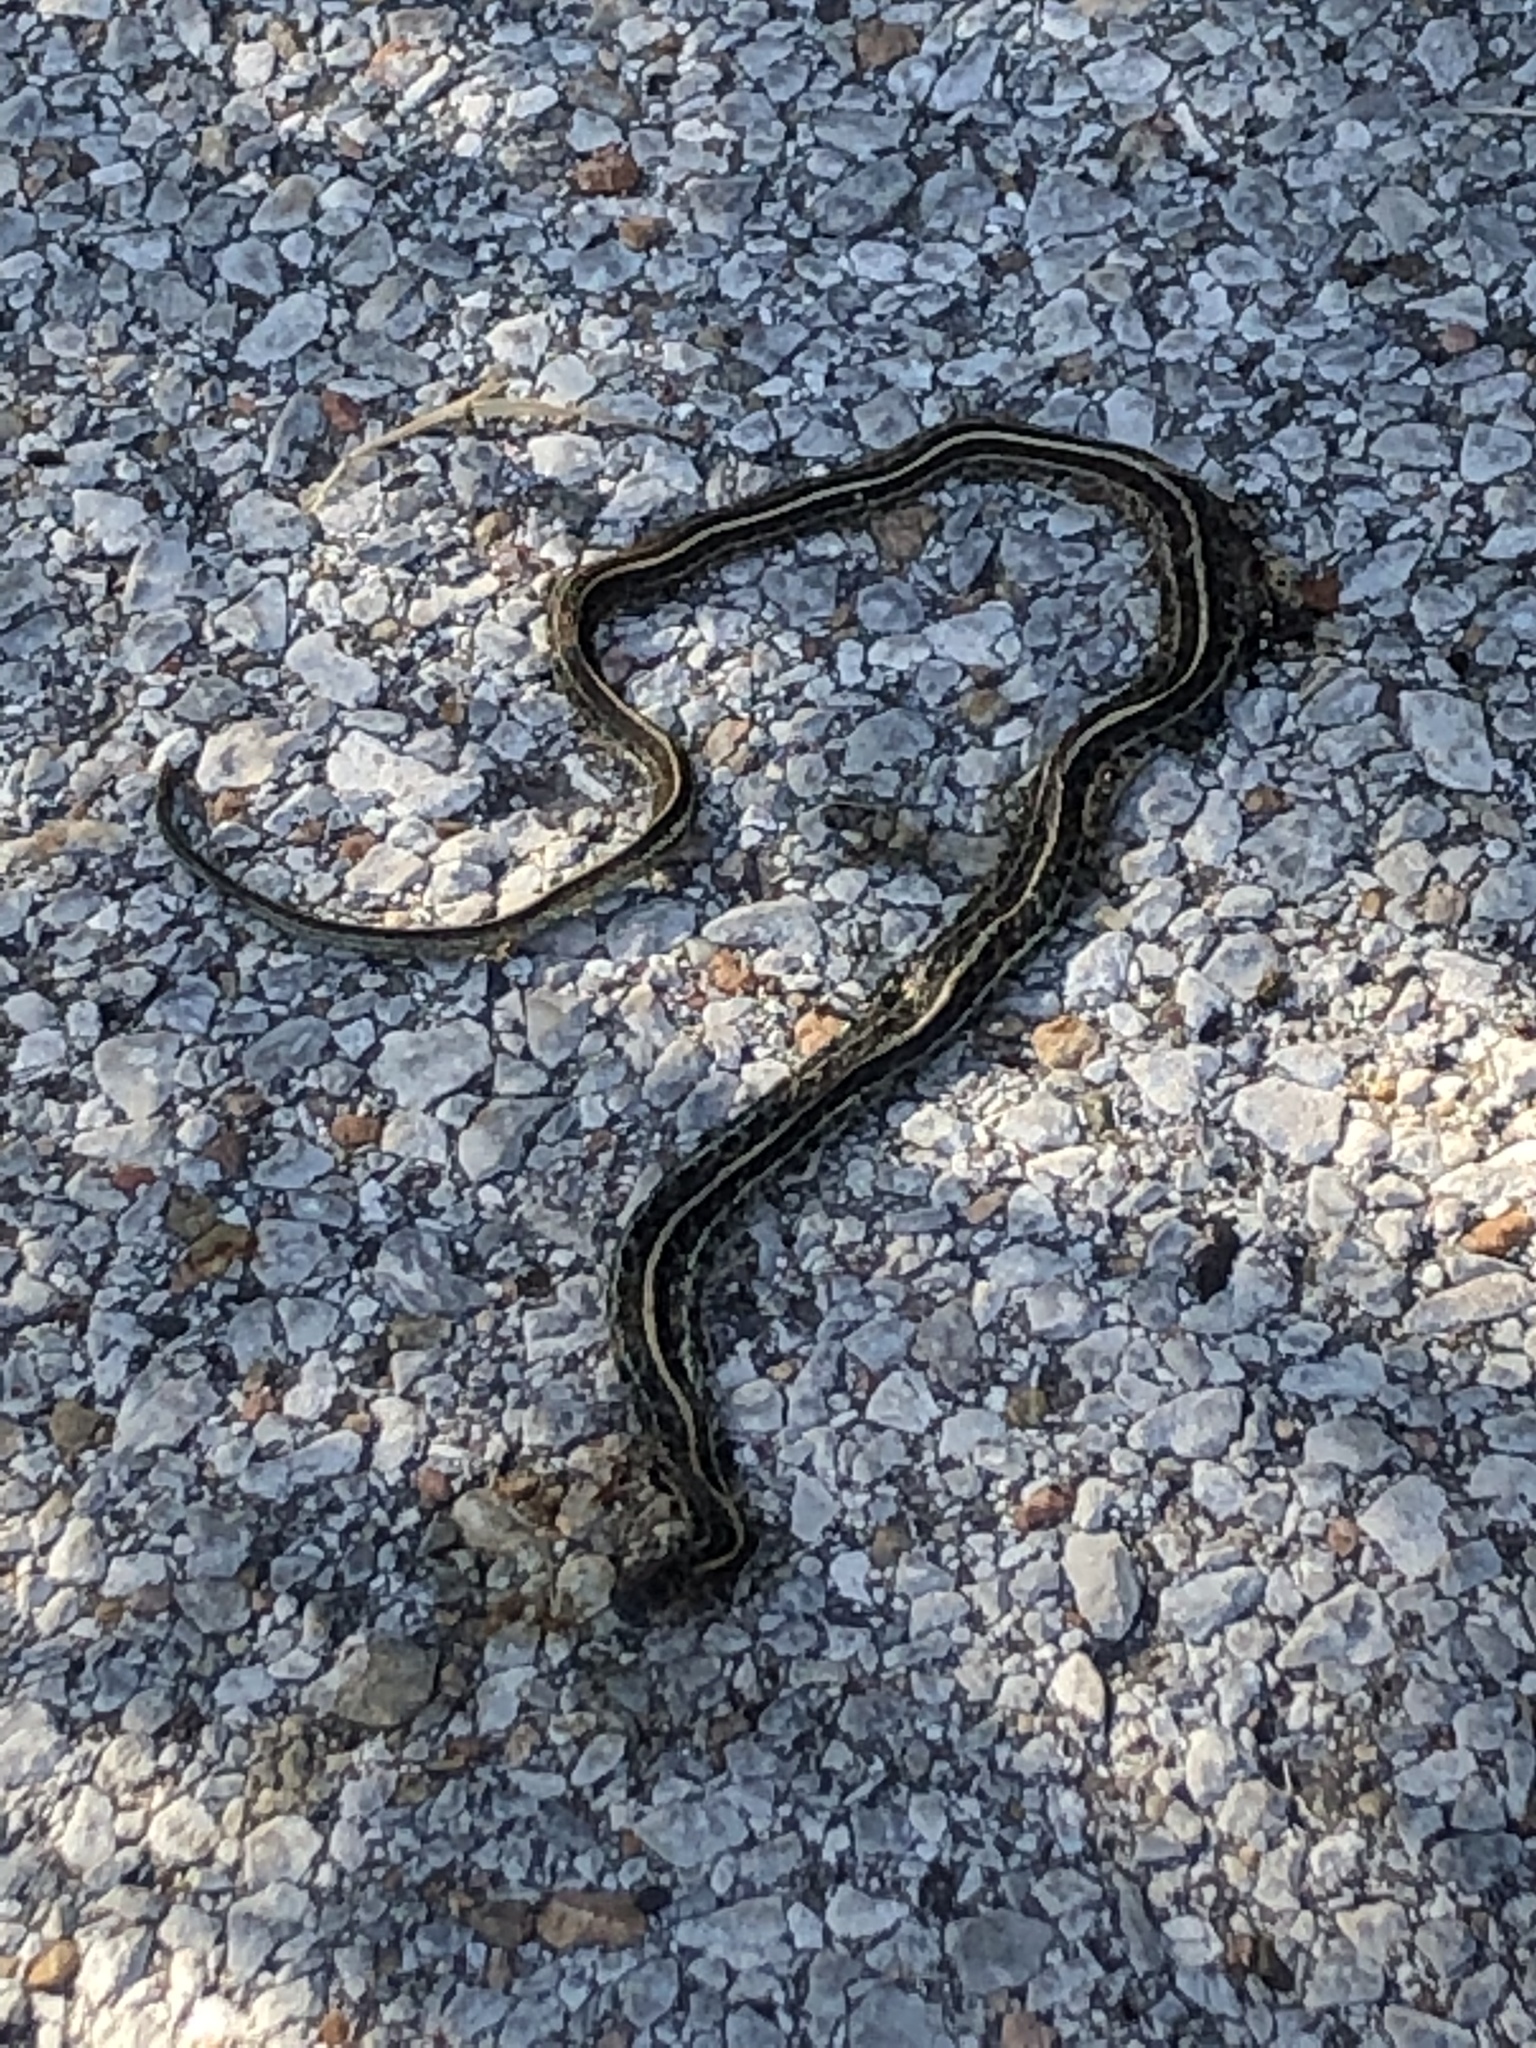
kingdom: Animalia
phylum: Chordata
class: Squamata
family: Colubridae
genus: Thamnophis
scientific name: Thamnophis radix
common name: Plains garter snake
